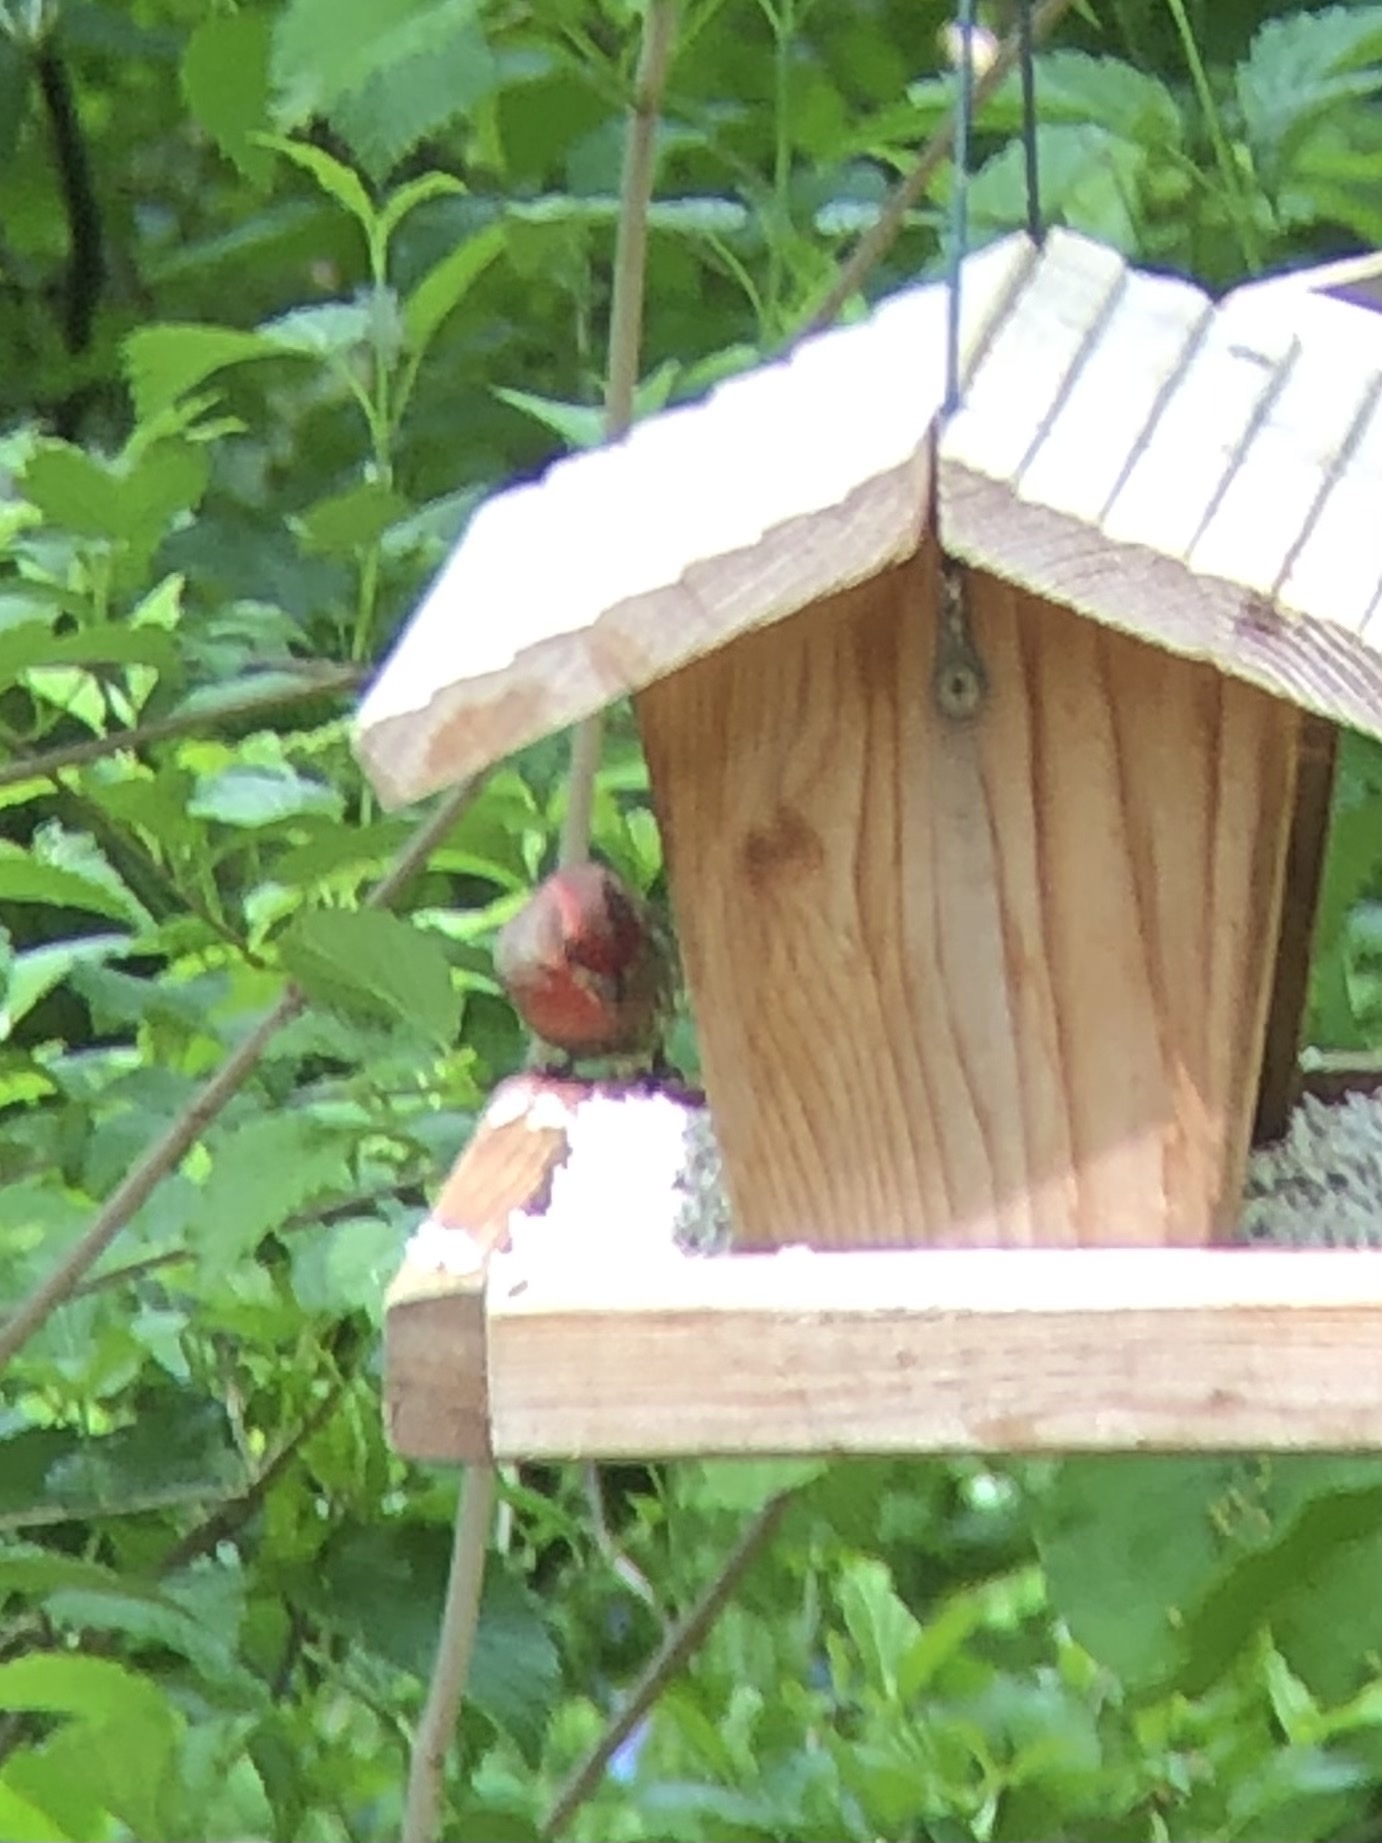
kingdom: Animalia
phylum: Chordata
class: Aves
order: Passeriformes
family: Fringillidae
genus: Haemorhous
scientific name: Haemorhous mexicanus
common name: House finch
